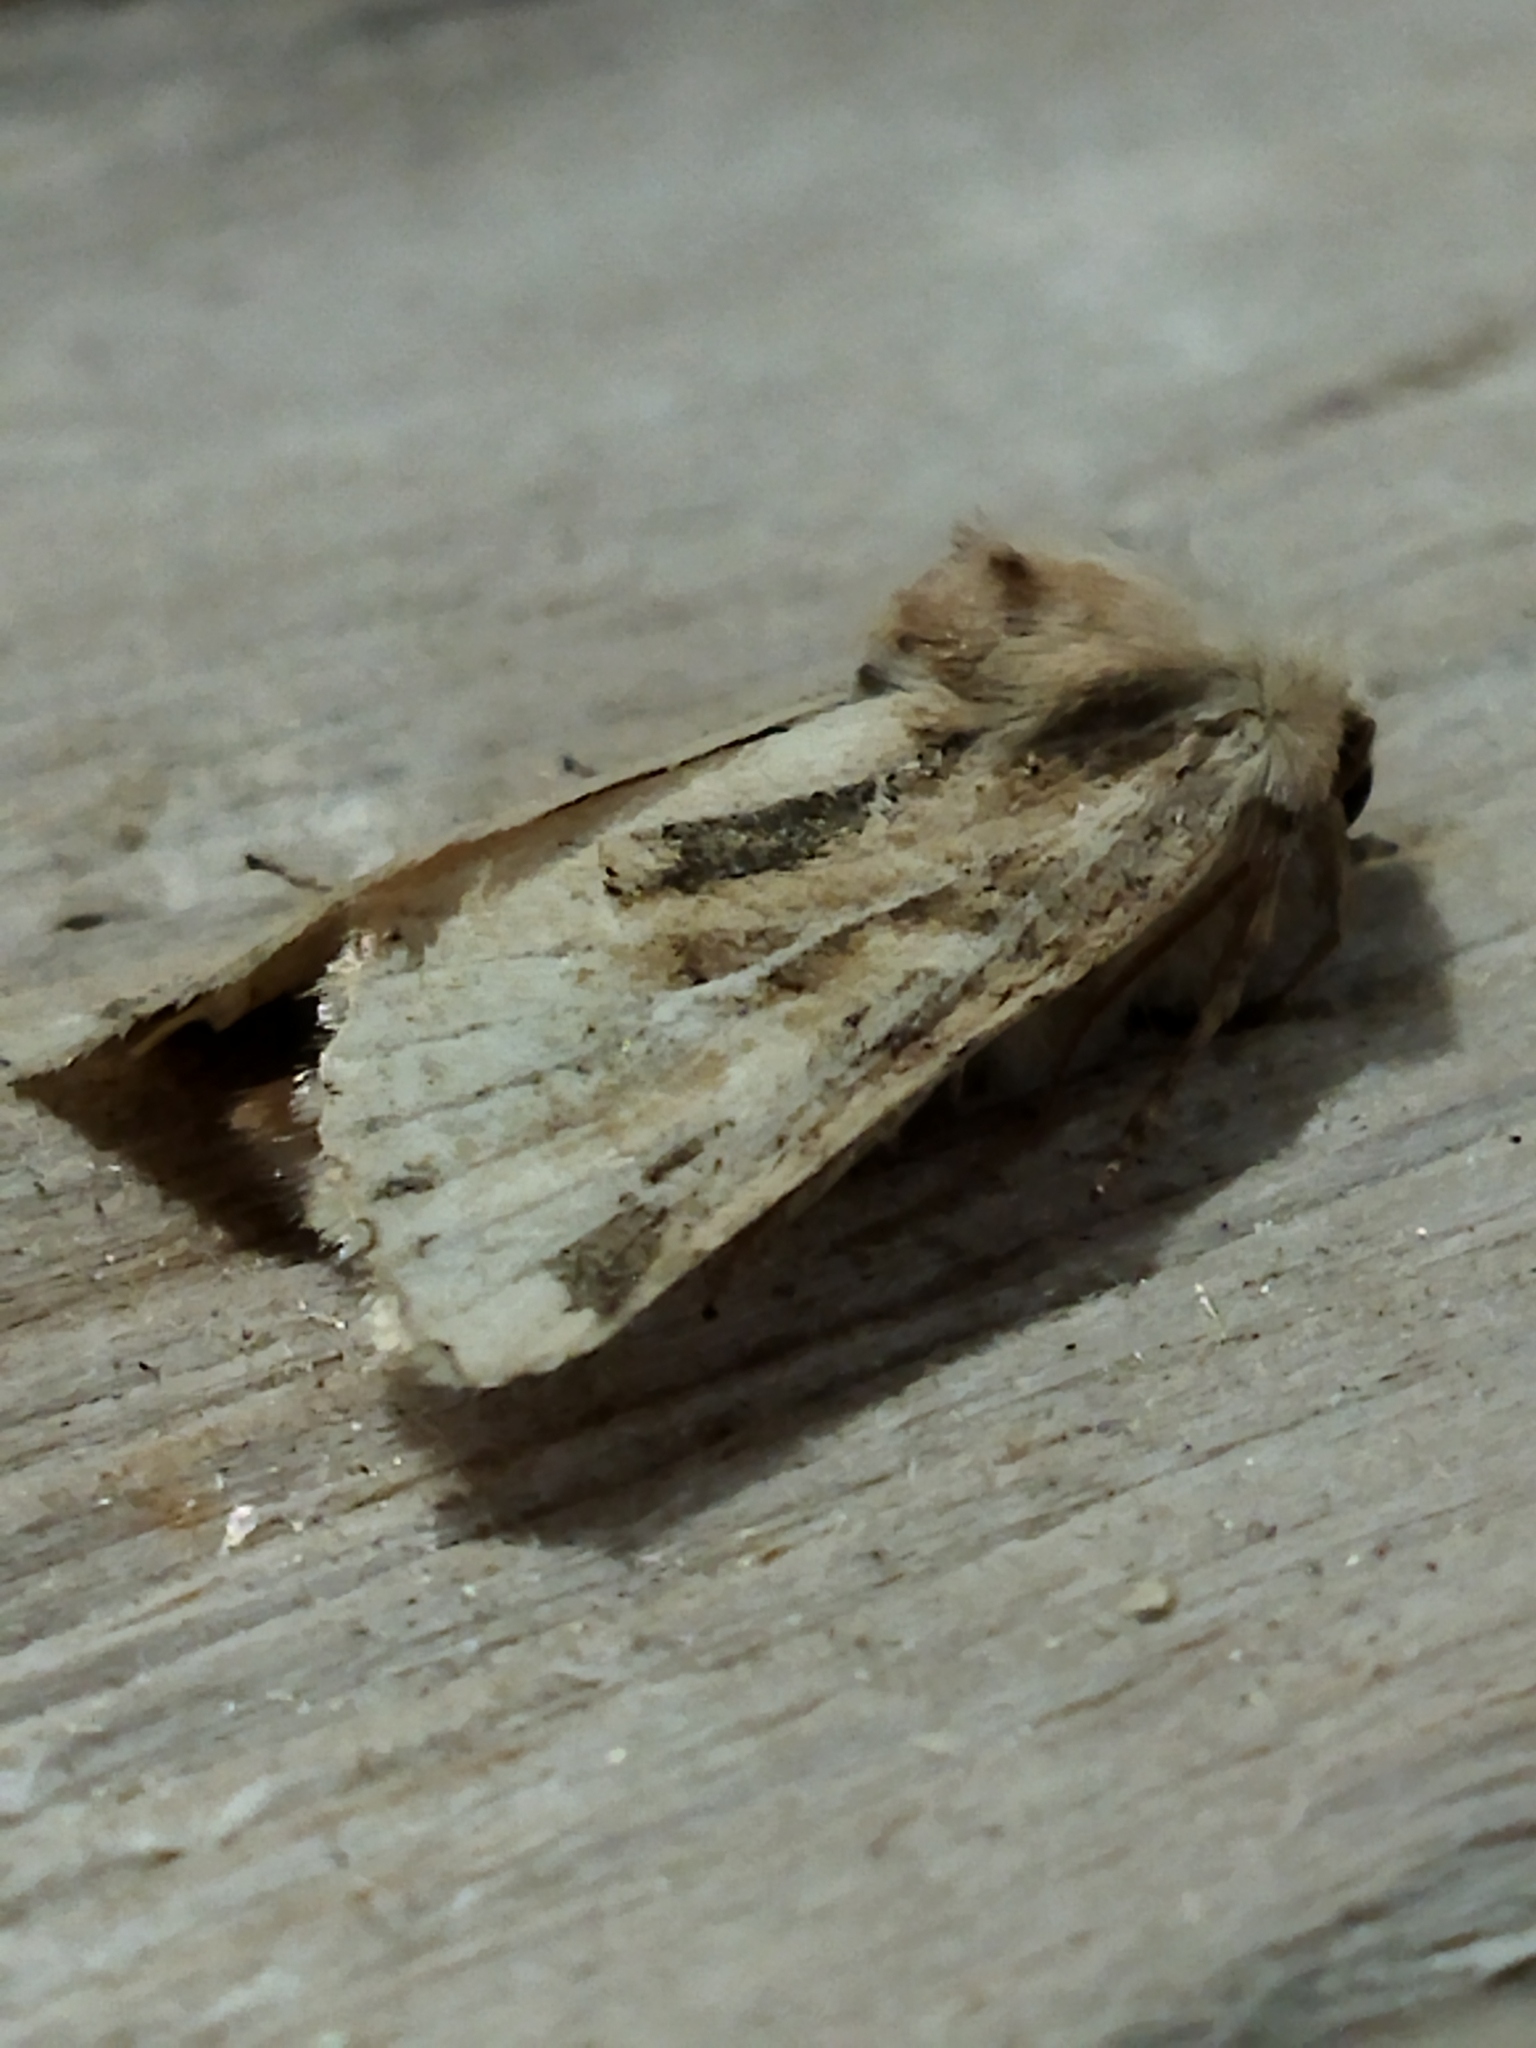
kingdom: Animalia
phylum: Arthropoda
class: Insecta
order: Lepidoptera
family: Noctuidae
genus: Luperina
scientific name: Luperina dumerilii
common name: Dumeril's rustic
